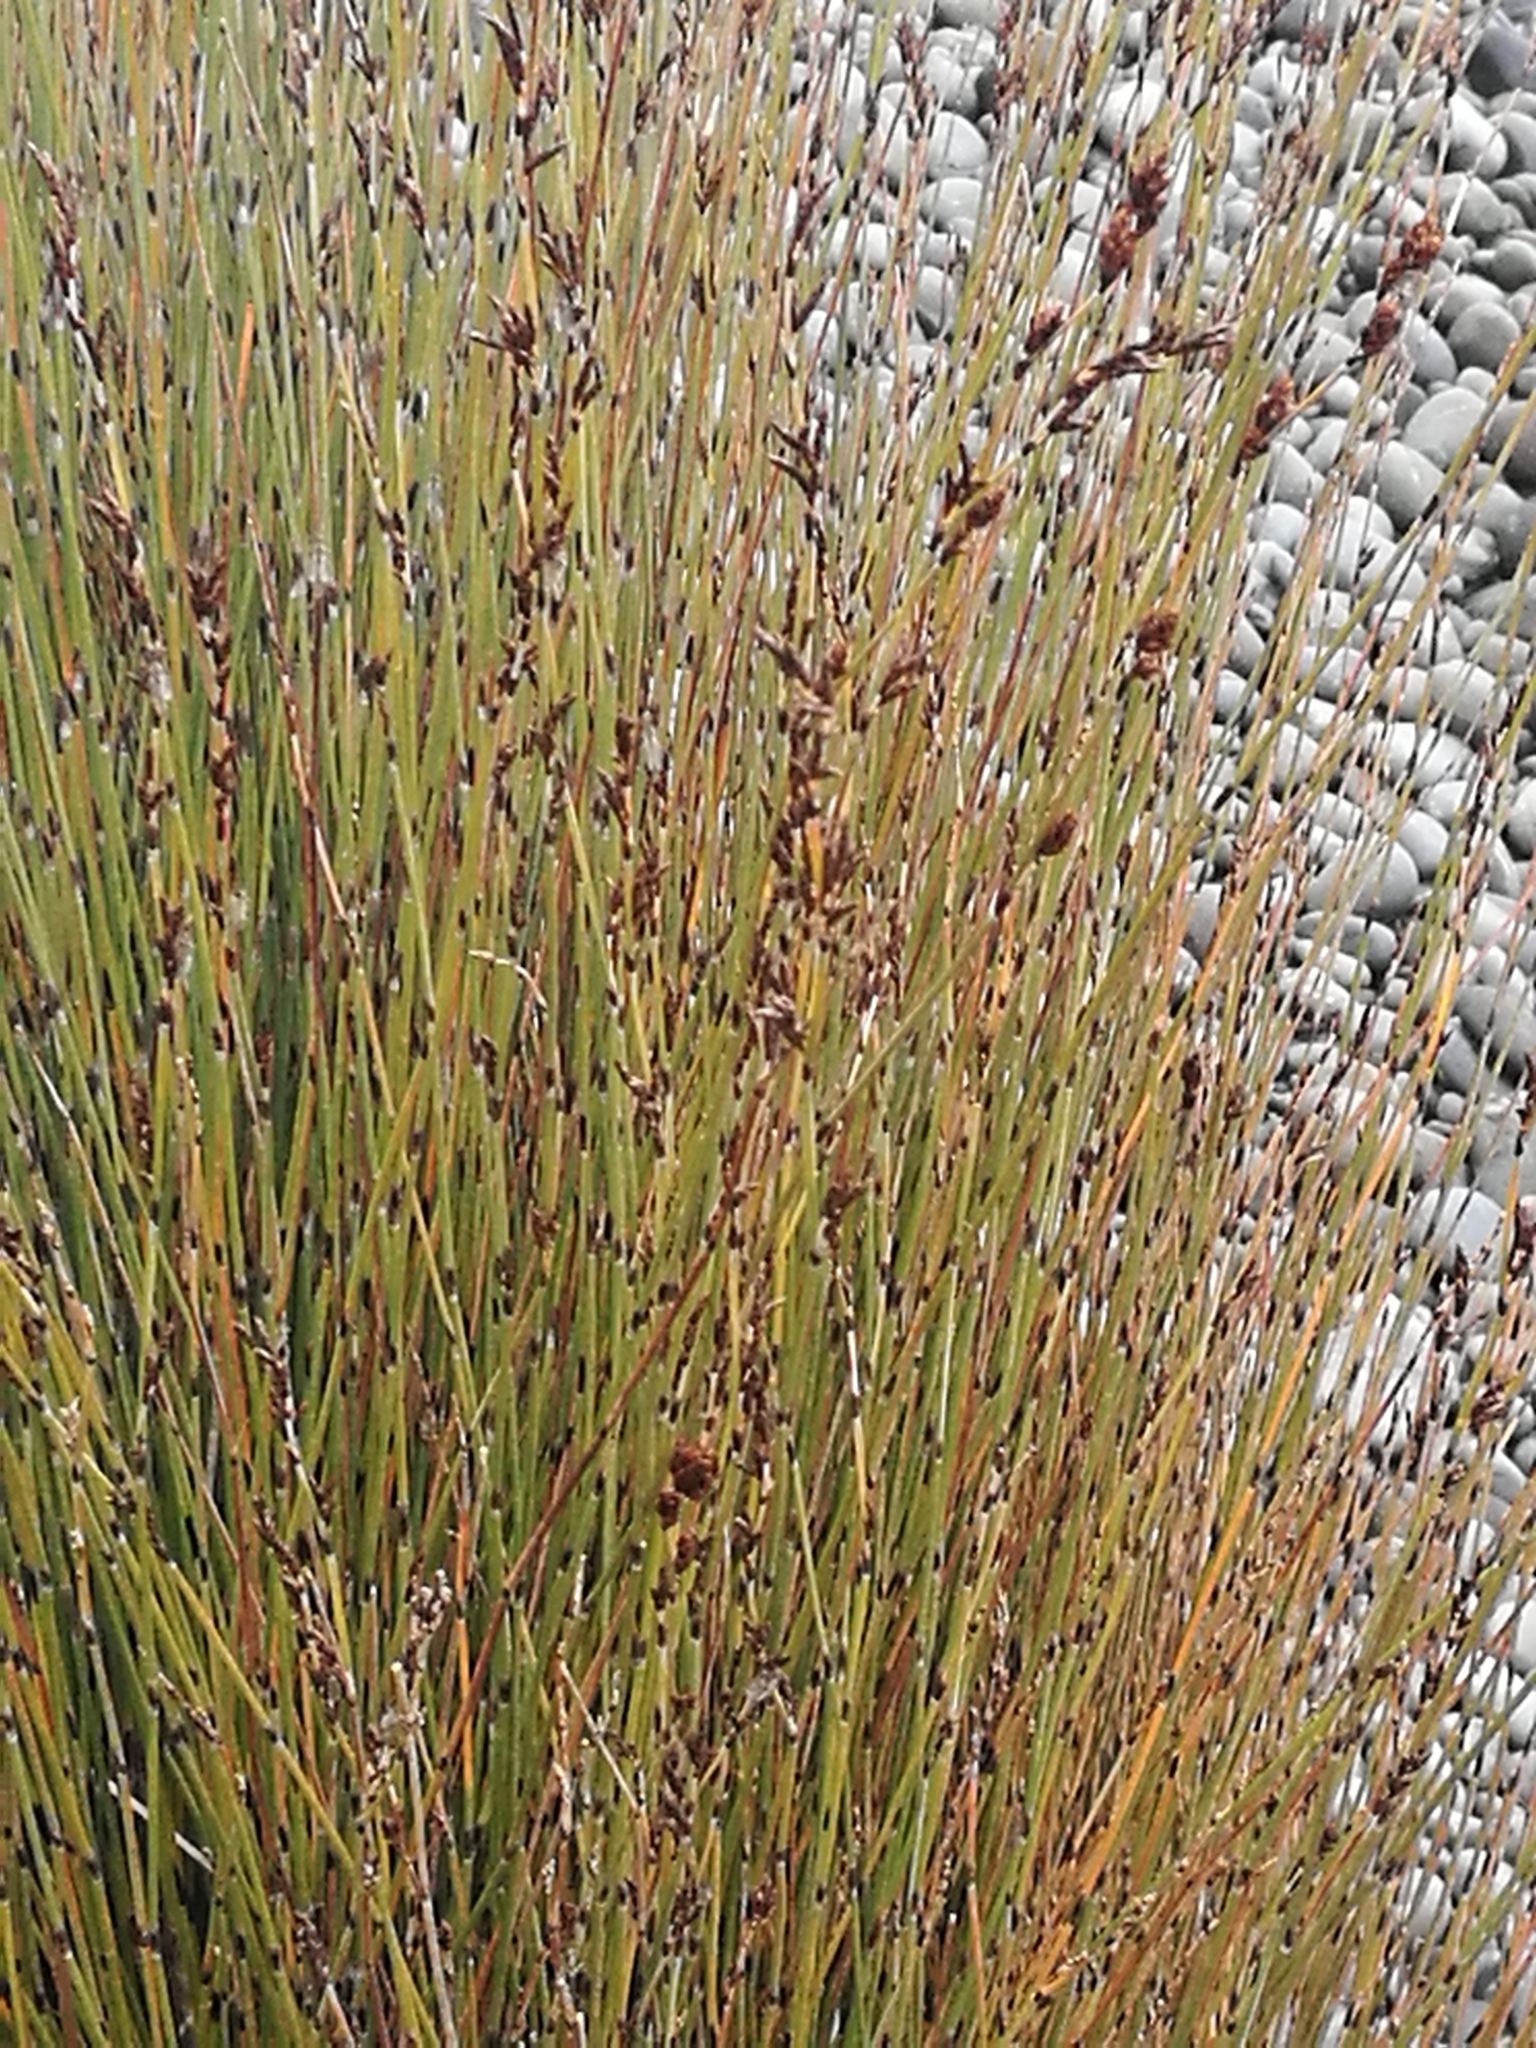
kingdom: Plantae
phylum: Tracheophyta
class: Liliopsida
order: Poales
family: Restionaceae
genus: Apodasmia
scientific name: Apodasmia similis
